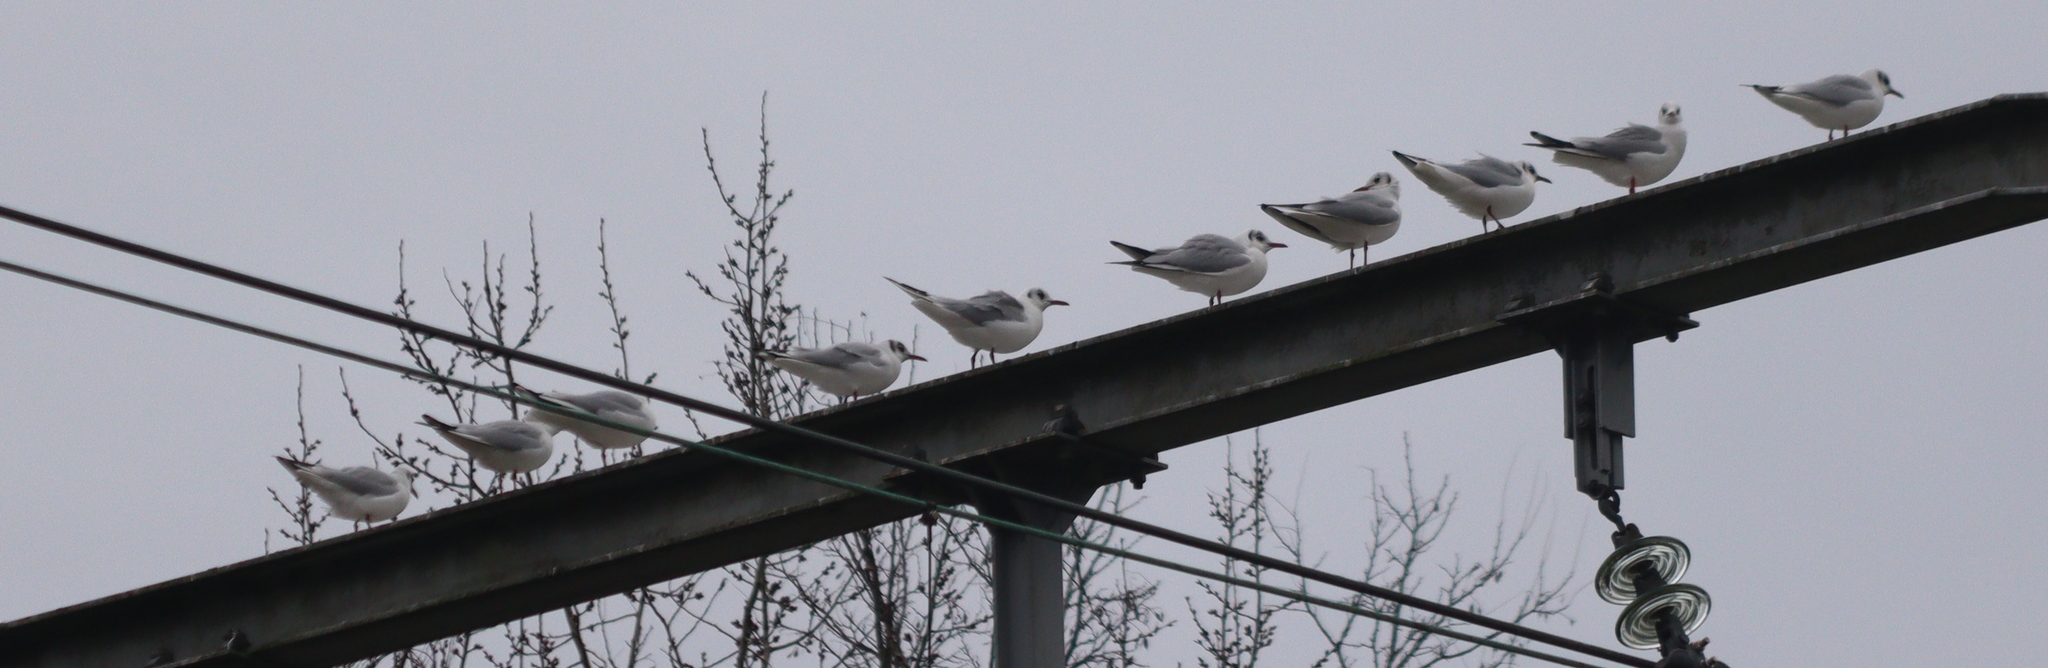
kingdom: Animalia
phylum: Chordata
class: Aves
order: Charadriiformes
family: Laridae
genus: Chroicocephalus
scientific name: Chroicocephalus ridibundus
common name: Black-headed gull
